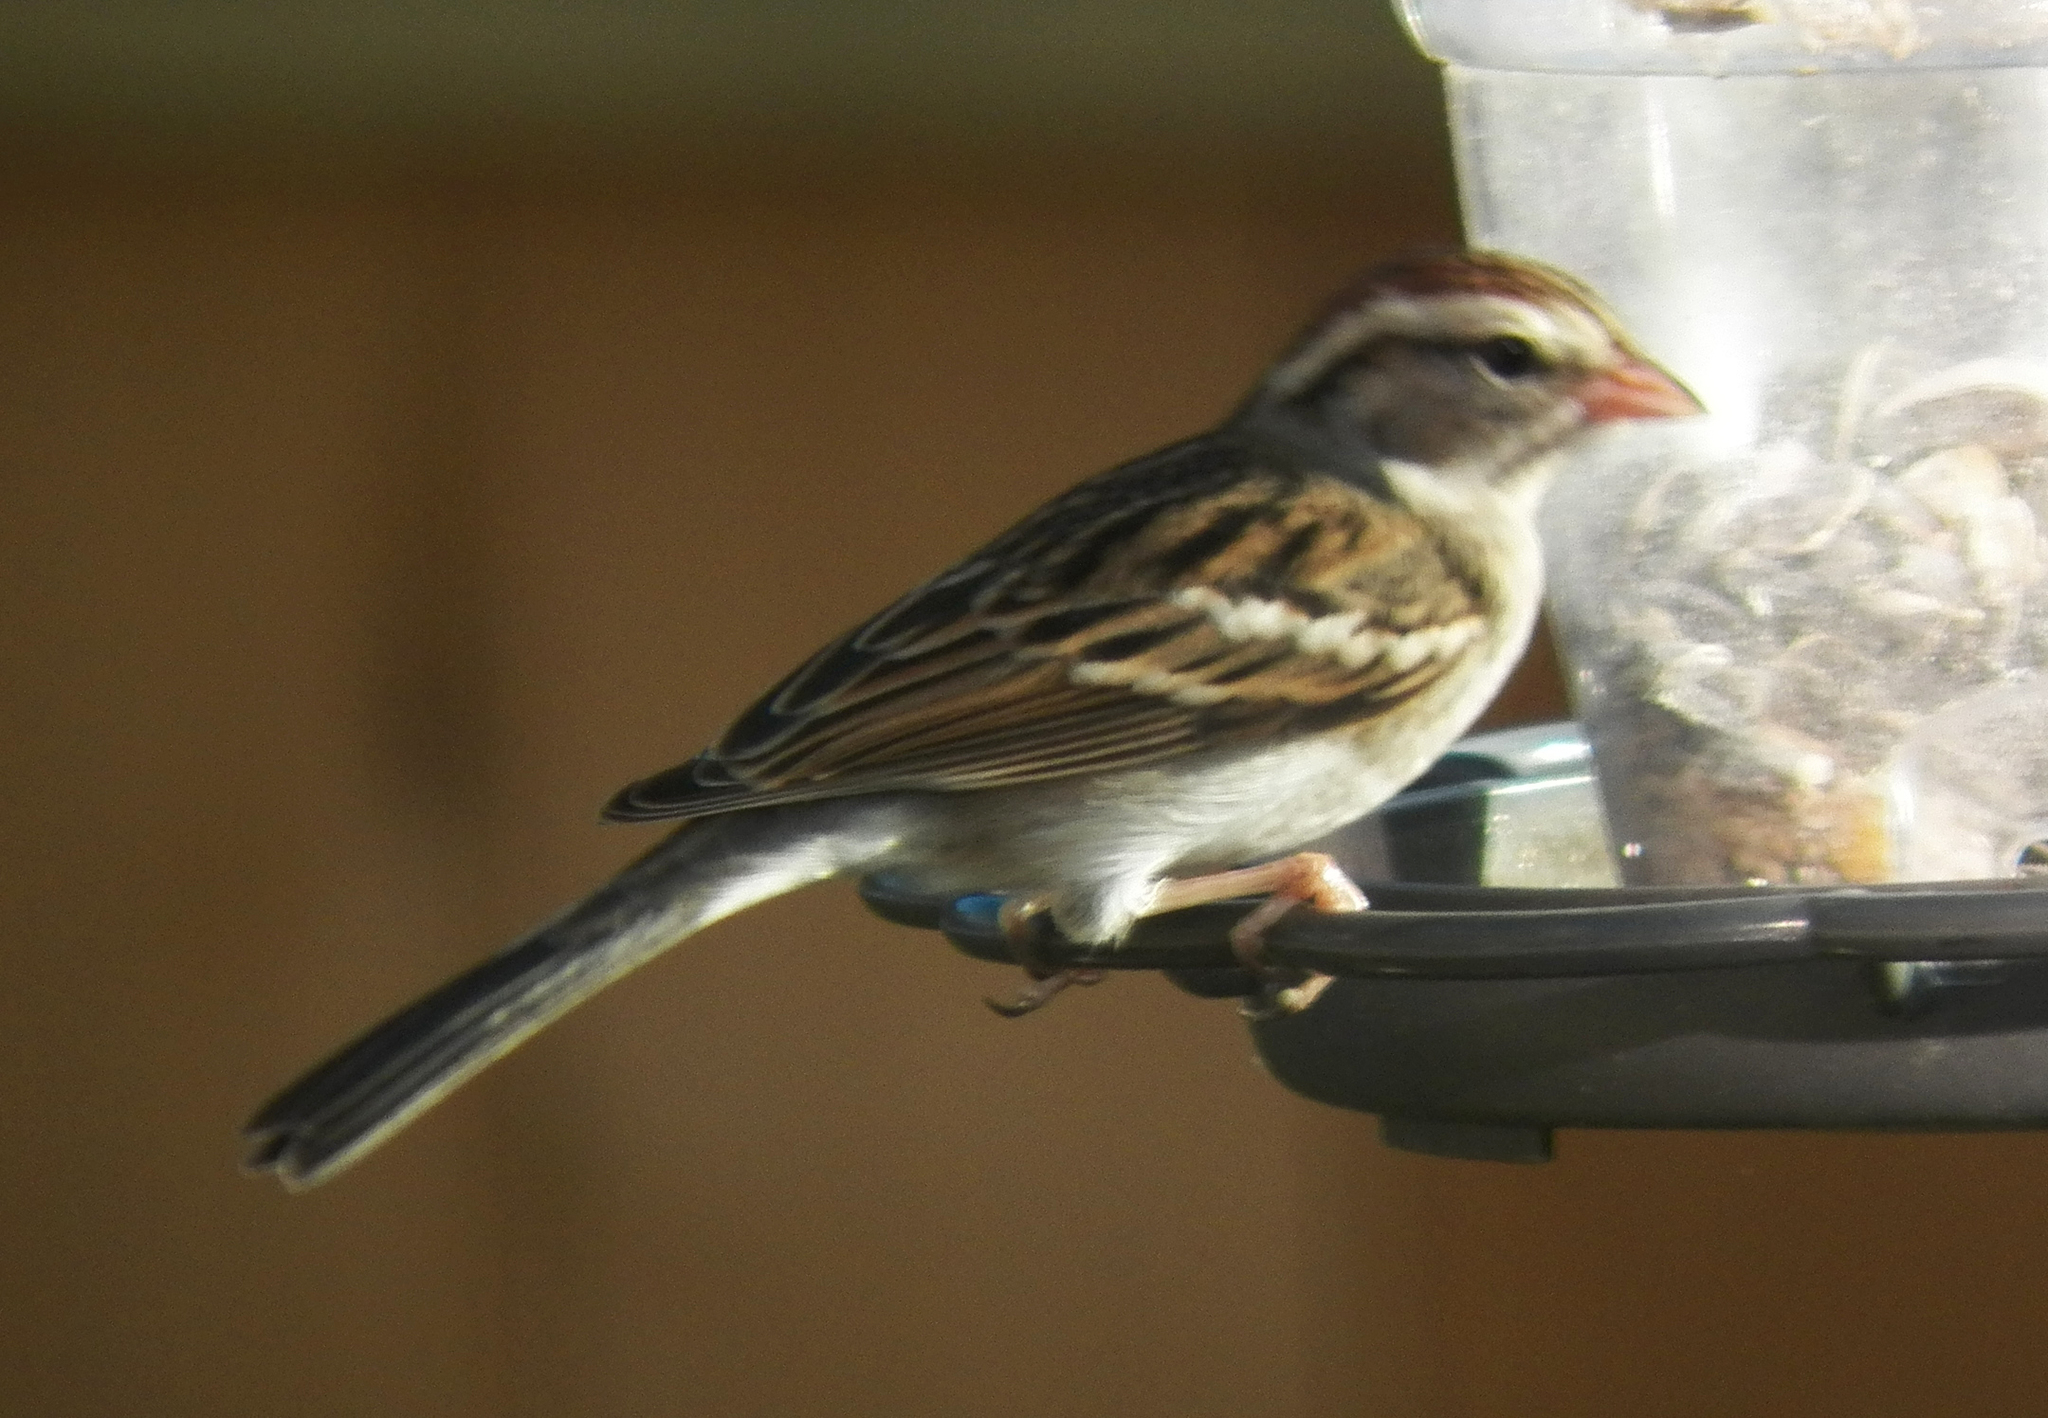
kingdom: Animalia
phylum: Chordata
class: Aves
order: Passeriformes
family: Passerellidae
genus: Spizella
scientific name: Spizella passerina
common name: Chipping sparrow
